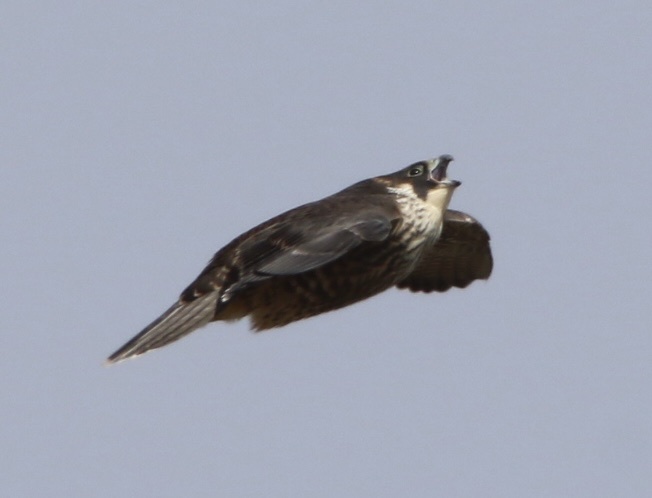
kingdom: Animalia
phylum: Chordata
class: Aves
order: Falconiformes
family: Falconidae
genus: Falco
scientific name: Falco peregrinus
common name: Peregrine falcon
